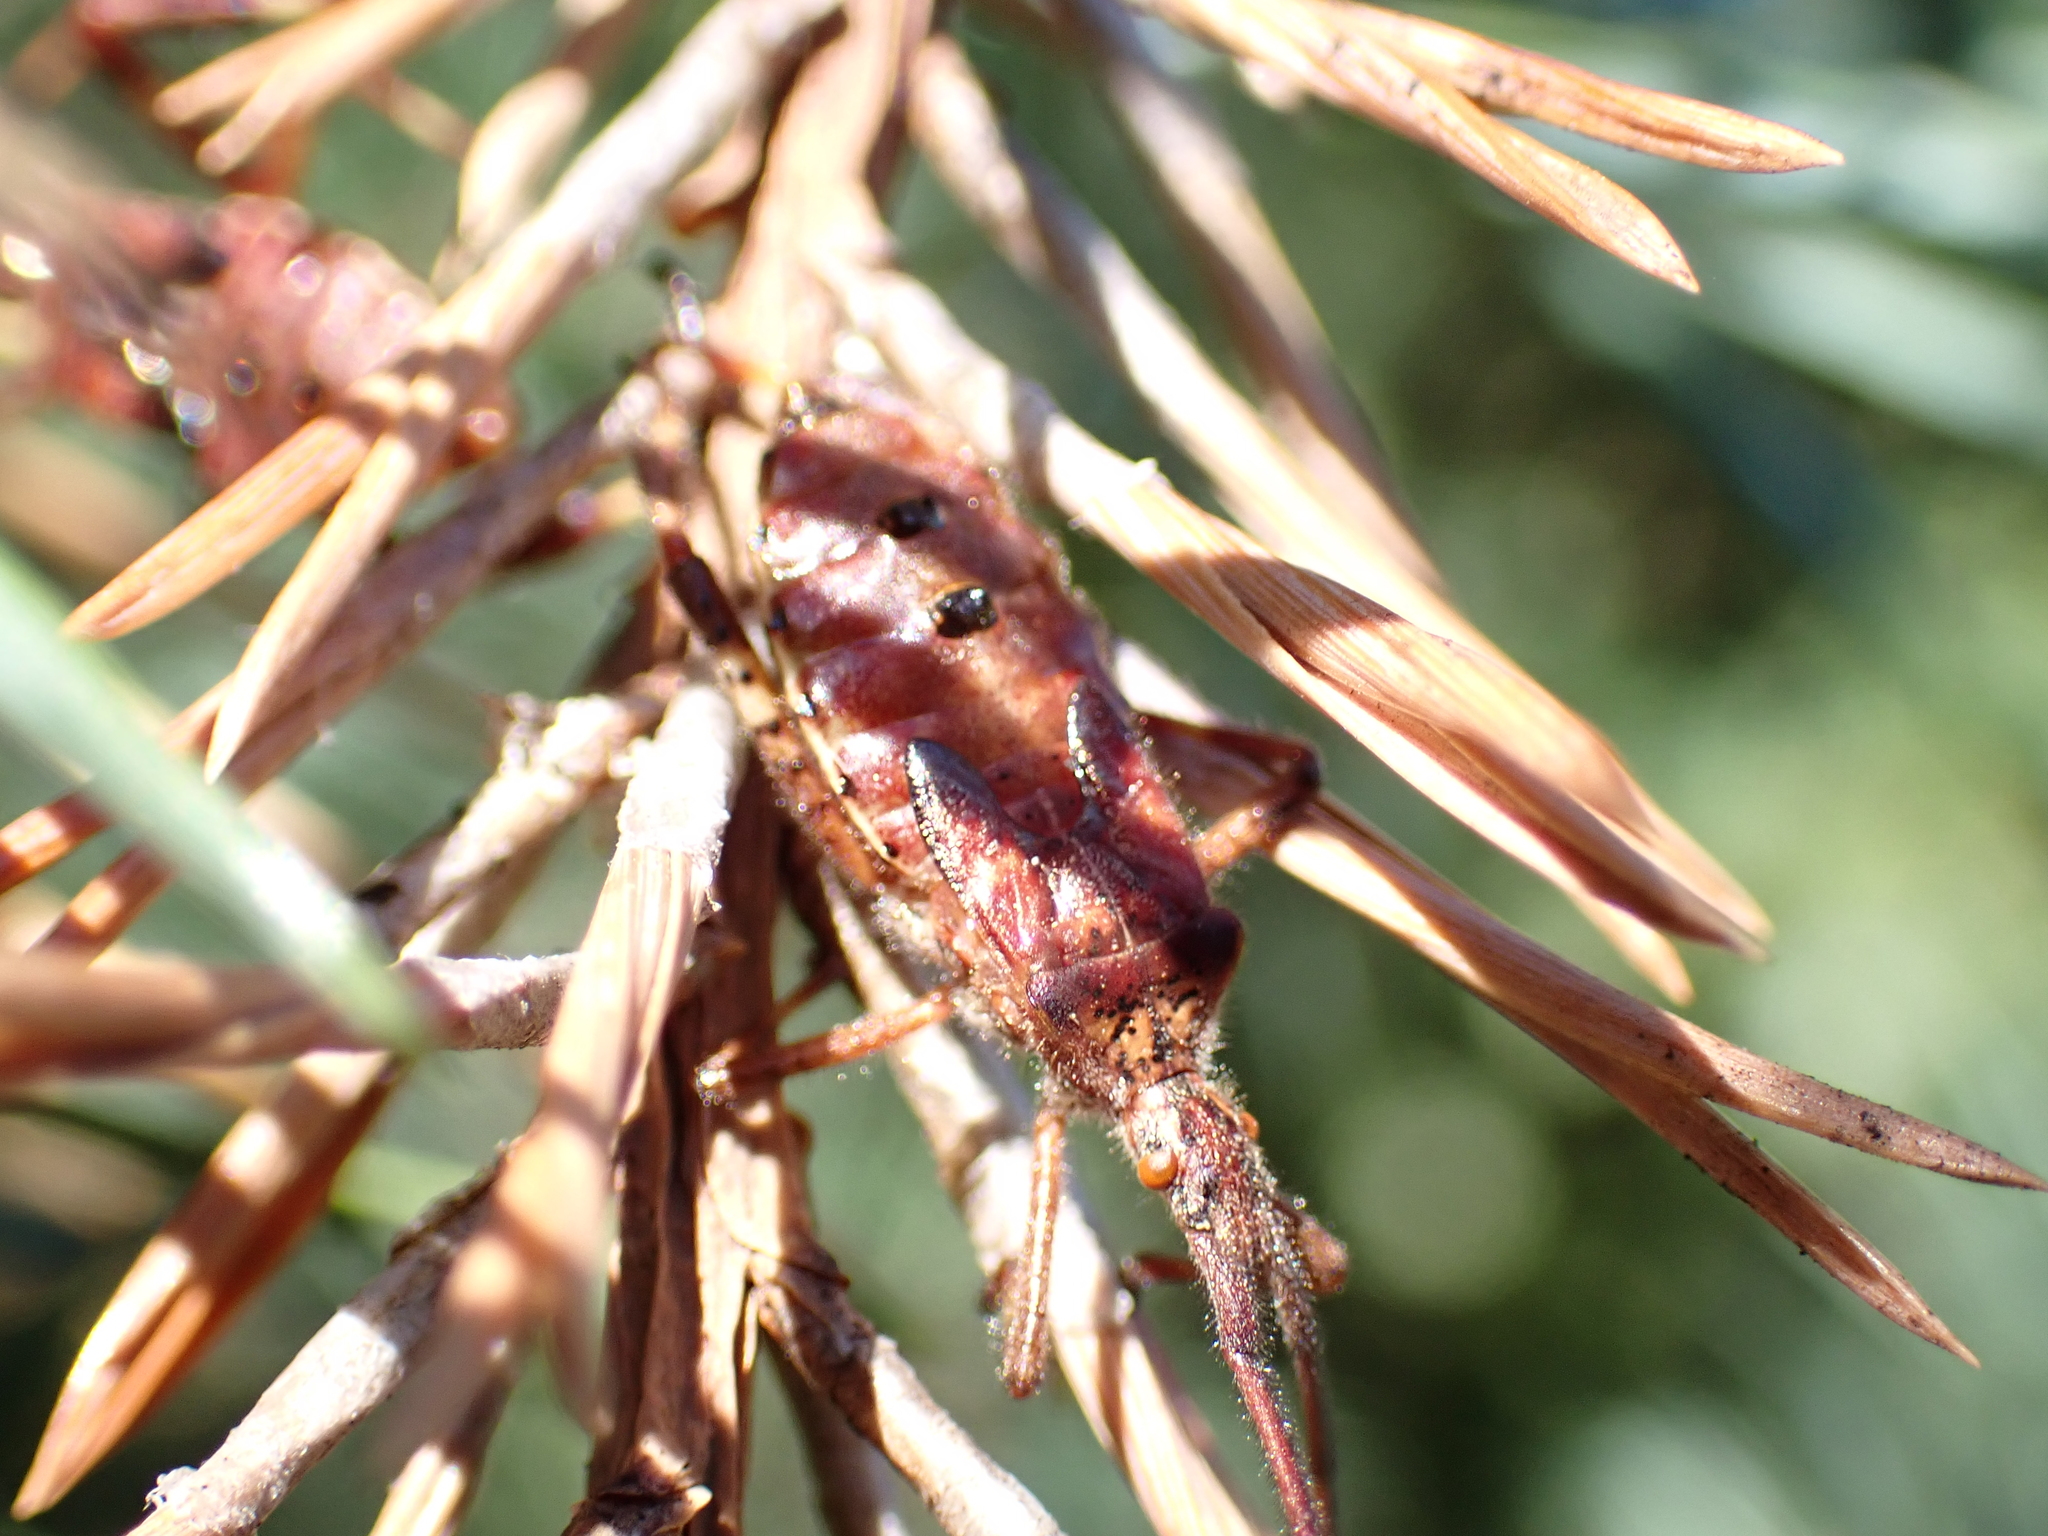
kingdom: Animalia
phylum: Arthropoda
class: Insecta
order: Hemiptera
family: Coreidae
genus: Leptoglossus
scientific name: Leptoglossus occidentalis
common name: Western conifer-seed bug
